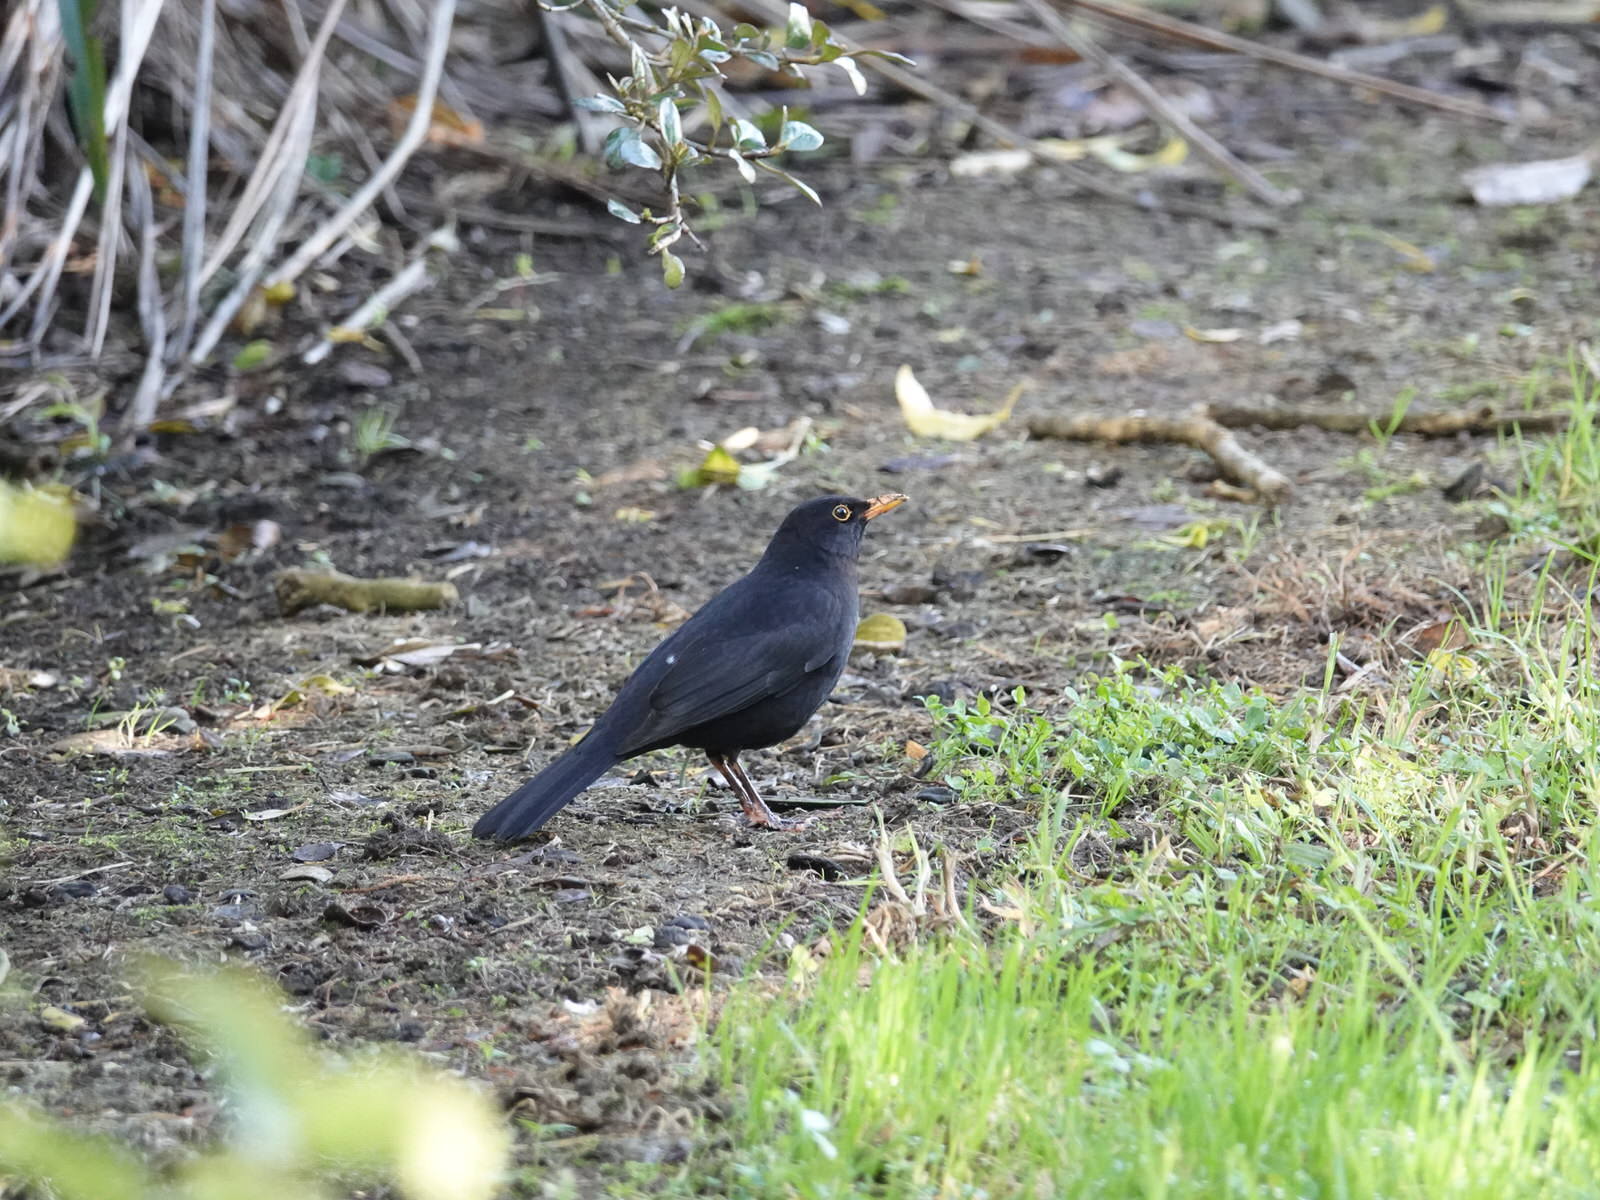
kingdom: Animalia
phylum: Chordata
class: Aves
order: Passeriformes
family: Turdidae
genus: Turdus
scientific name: Turdus merula
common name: Common blackbird
